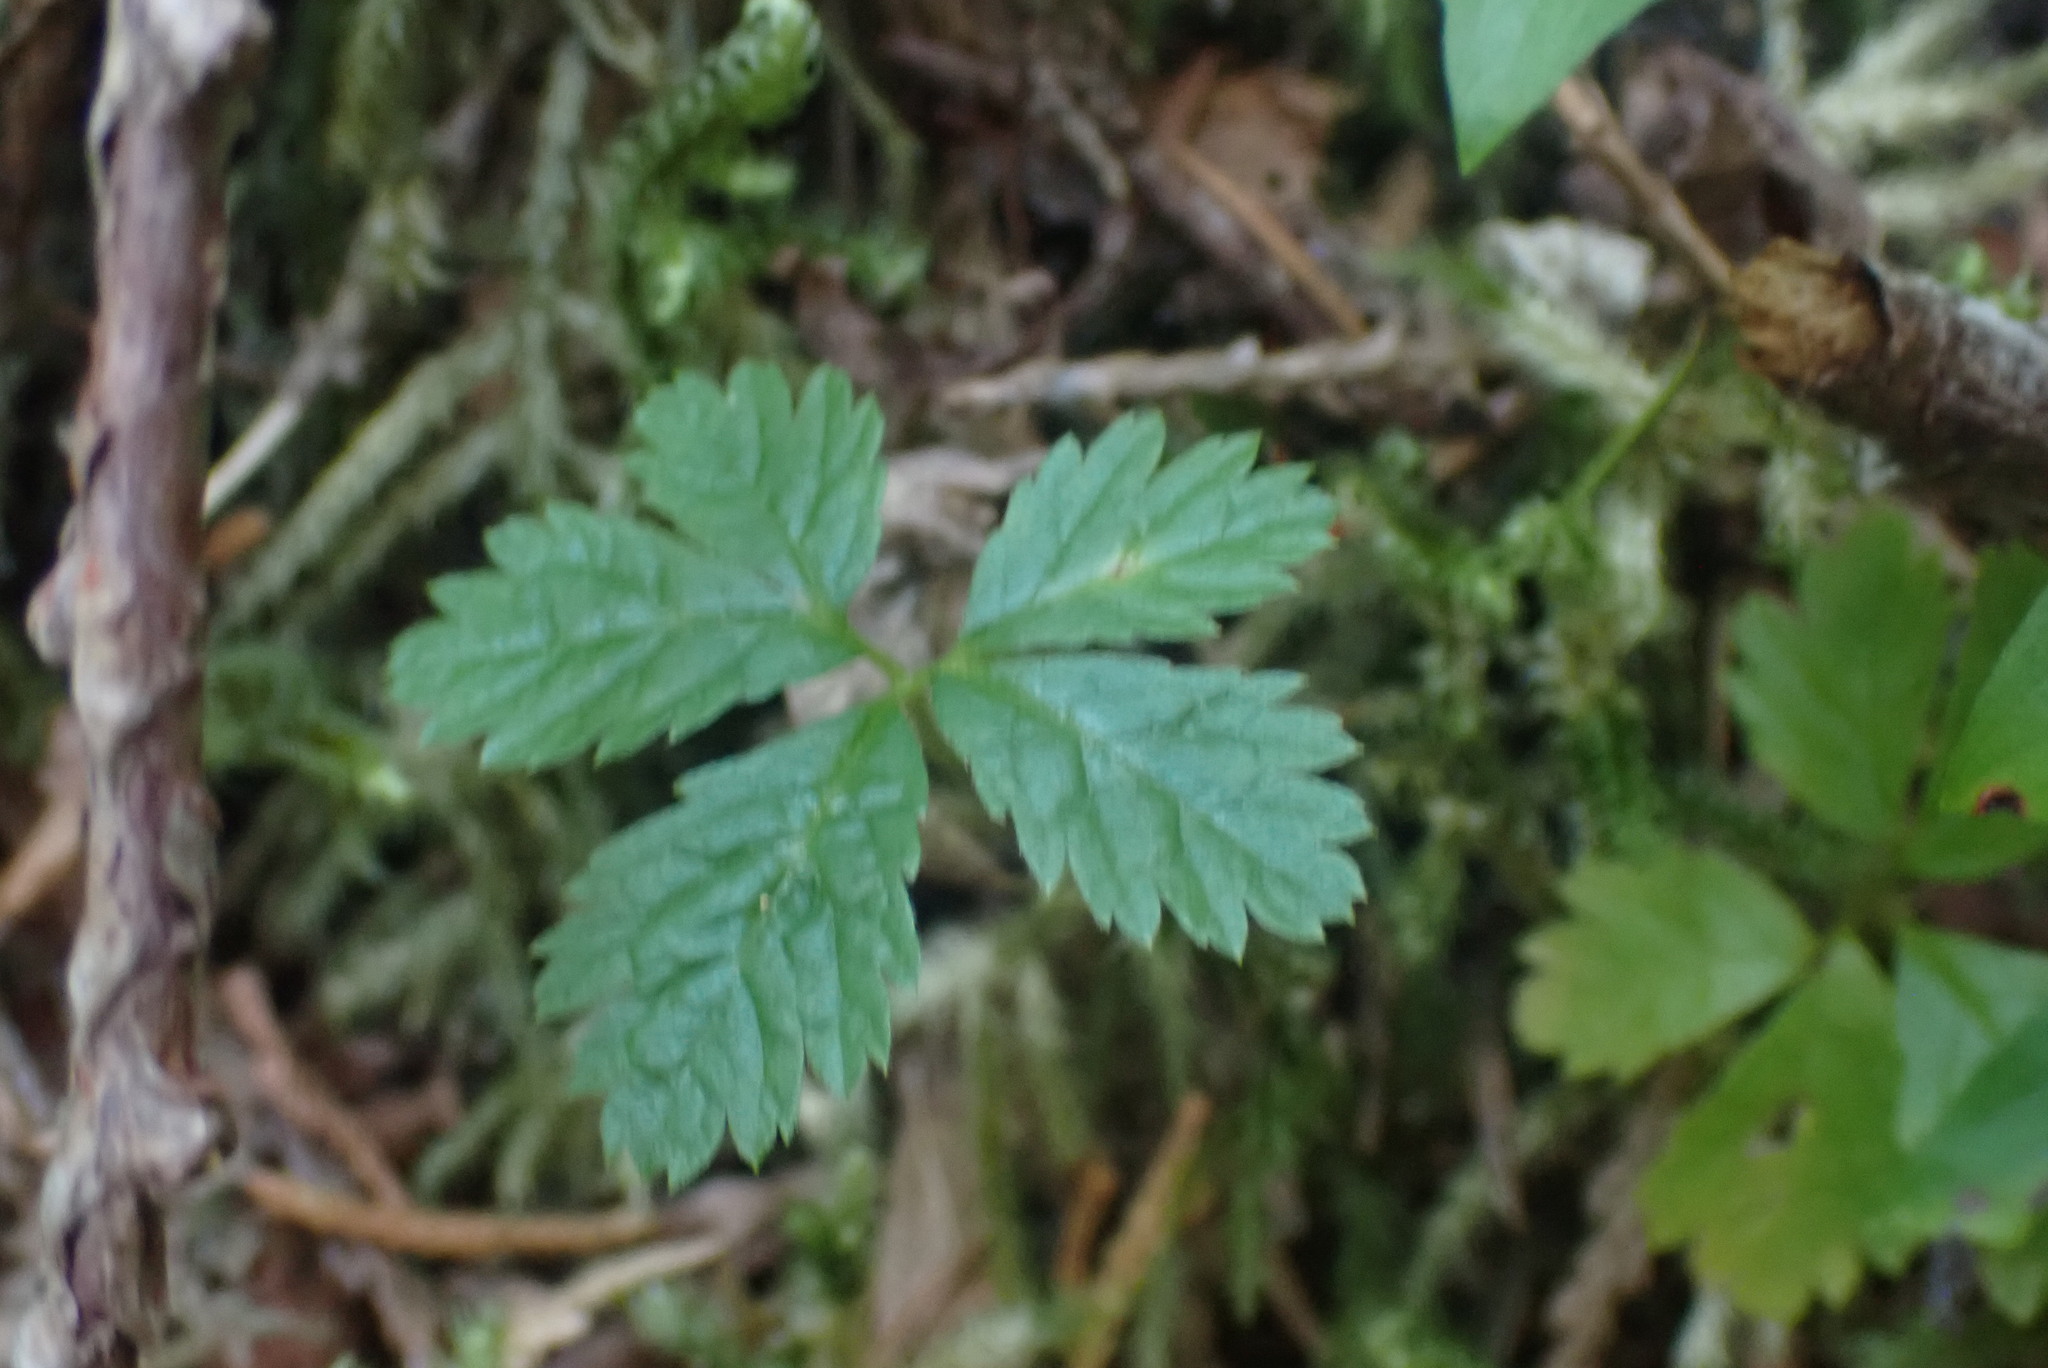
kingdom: Plantae
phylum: Tracheophyta
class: Magnoliopsida
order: Rosales
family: Rosaceae
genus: Rubus
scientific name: Rubus pedatus
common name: Creeping raspberry
